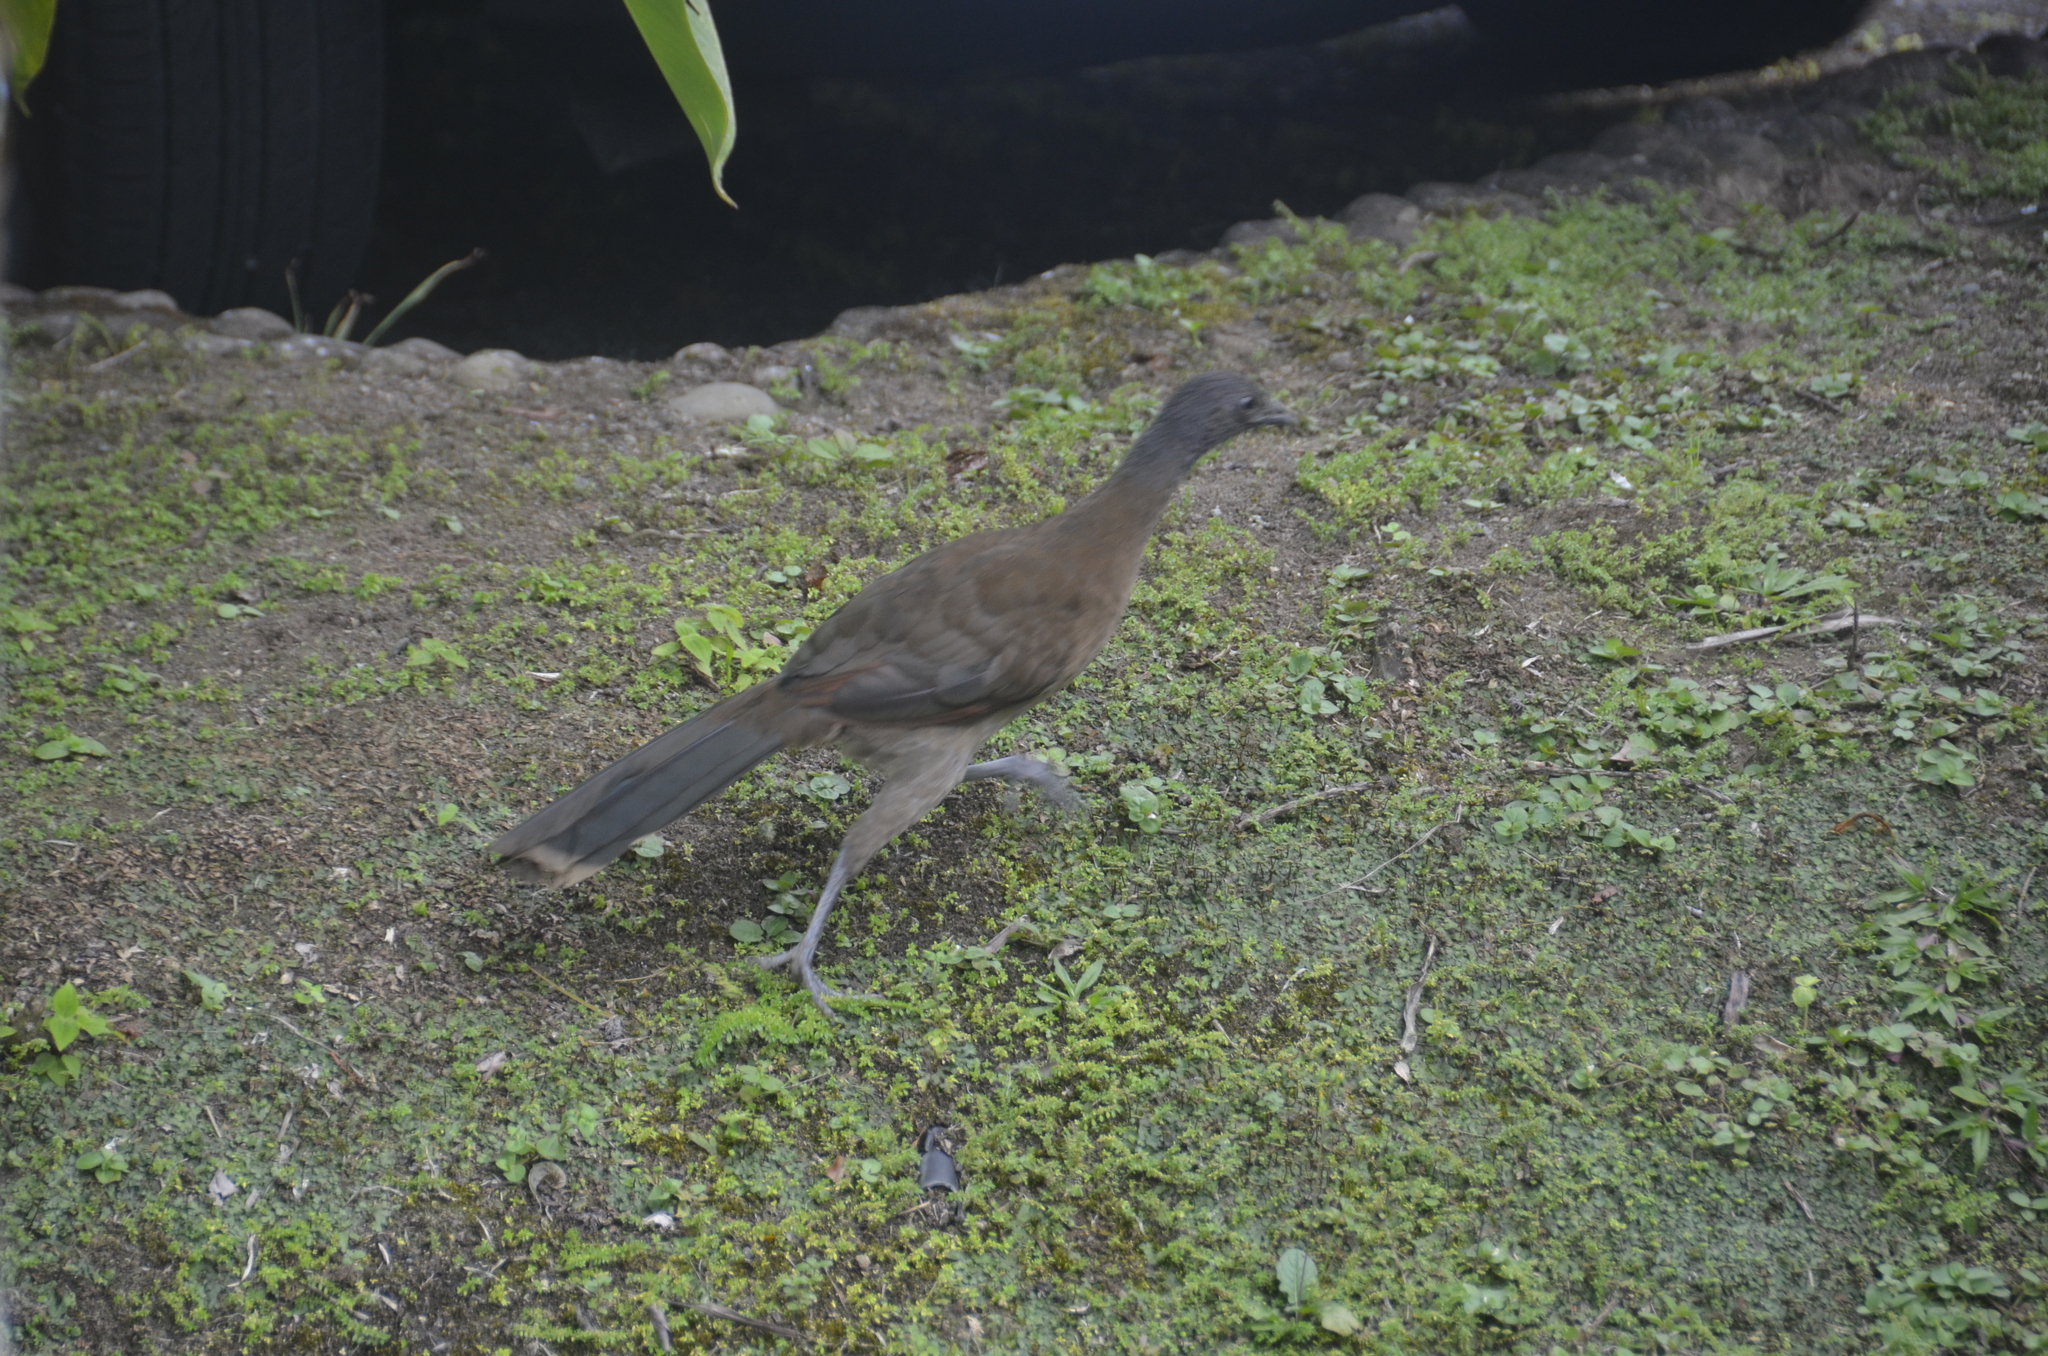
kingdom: Animalia
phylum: Chordata
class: Aves
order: Galliformes
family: Cracidae
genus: Ortalis
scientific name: Ortalis cinereiceps
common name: Grey-headed chachalaca
